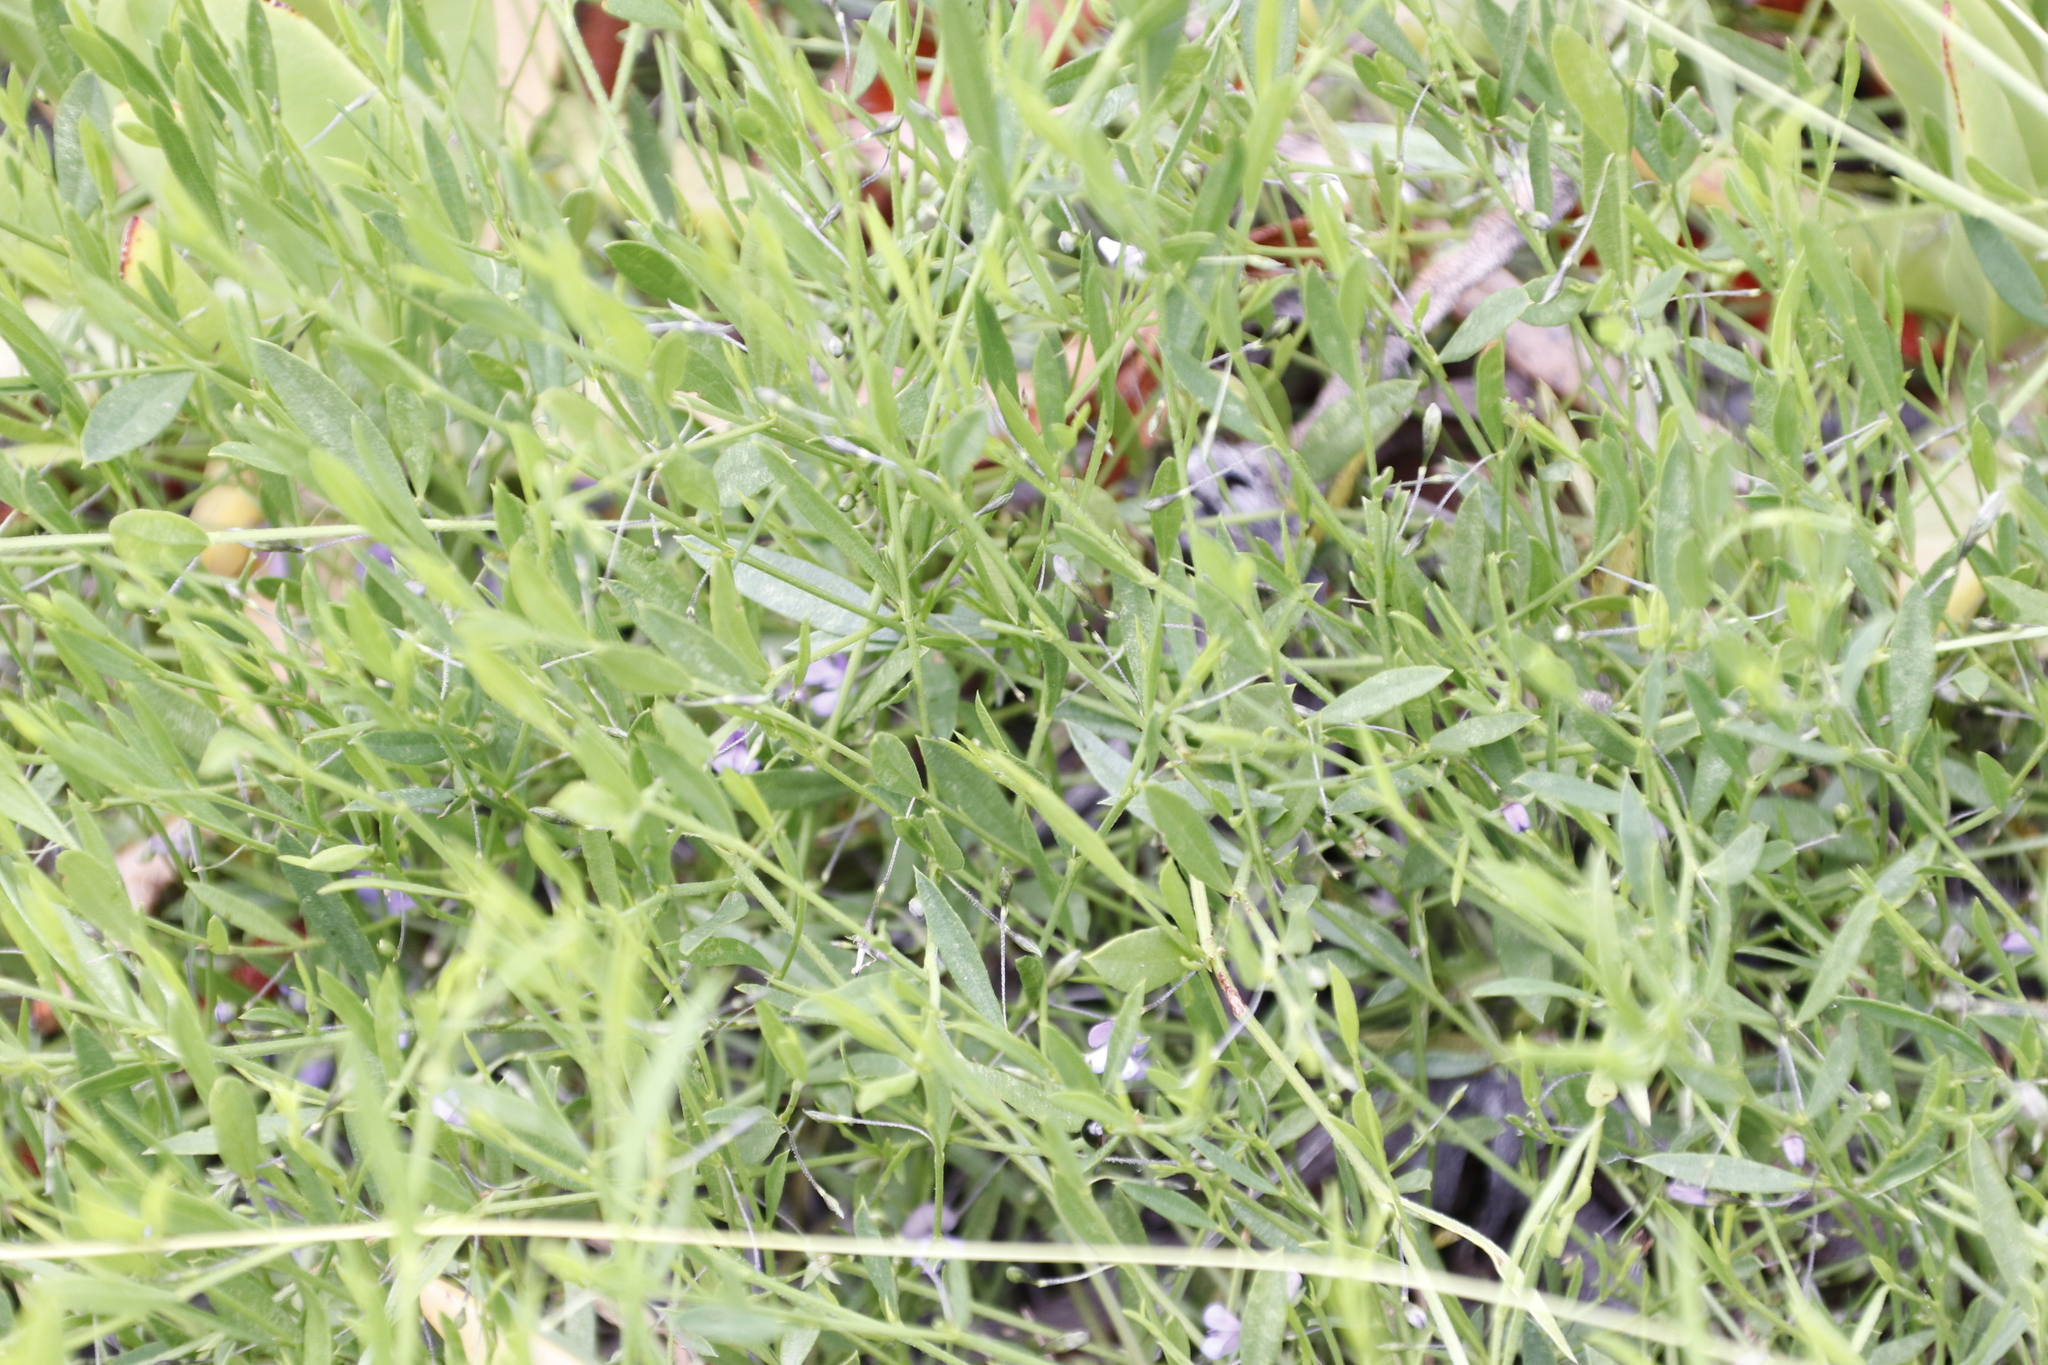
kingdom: Plantae
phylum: Tracheophyta
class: Magnoliopsida
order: Fabales
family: Fabaceae
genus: Psoralea
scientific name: Psoralea laxa
